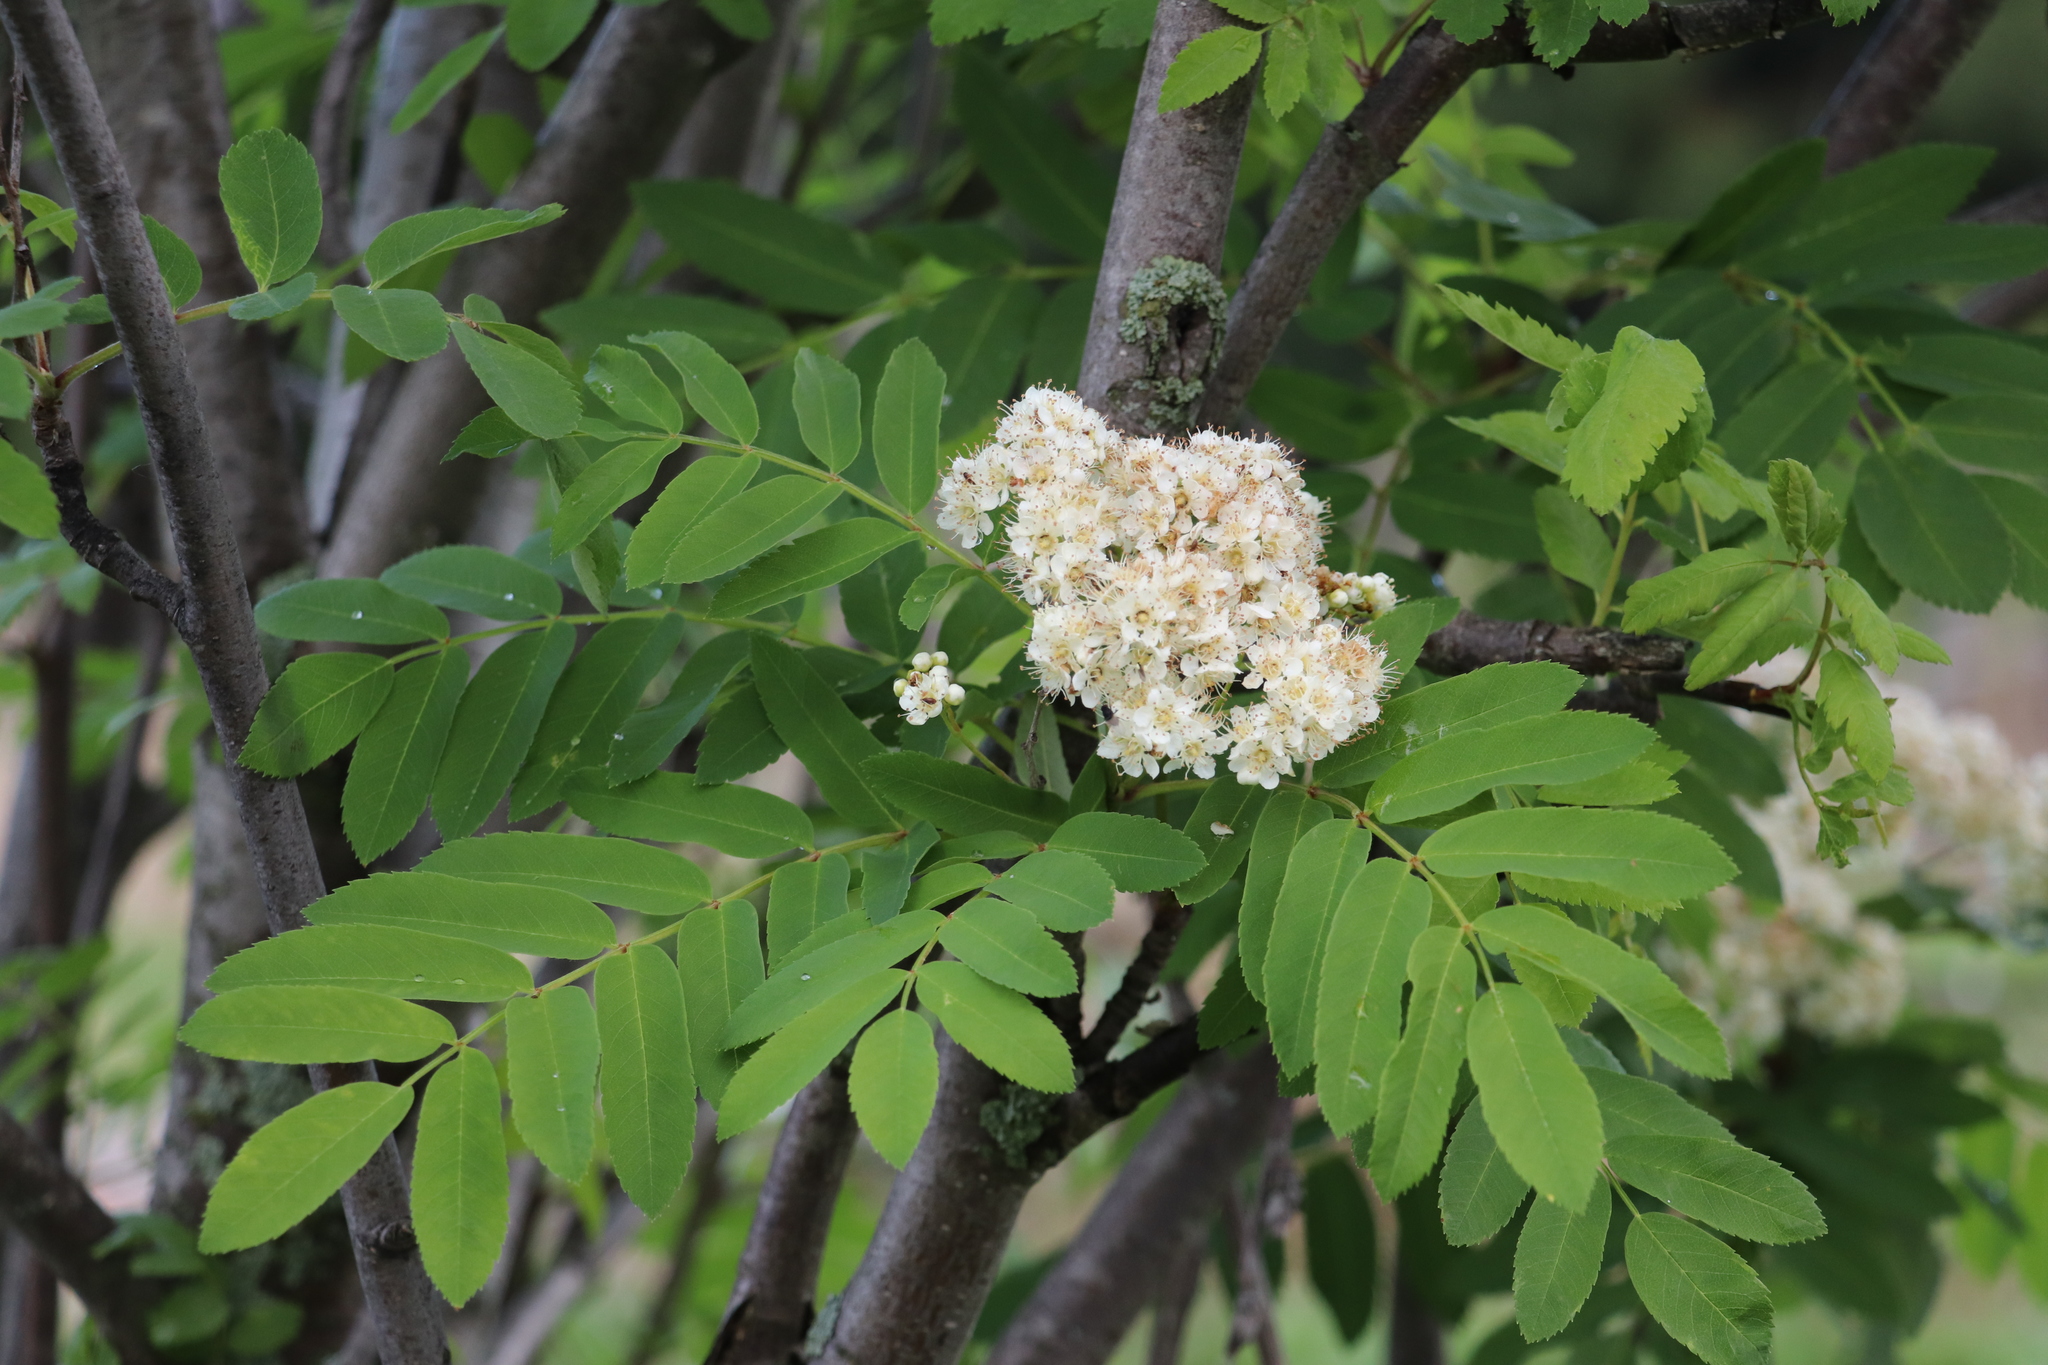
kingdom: Plantae
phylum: Tracheophyta
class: Magnoliopsida
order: Rosales
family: Rosaceae
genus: Sorbus
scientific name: Sorbus aucuparia
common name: Rowan
